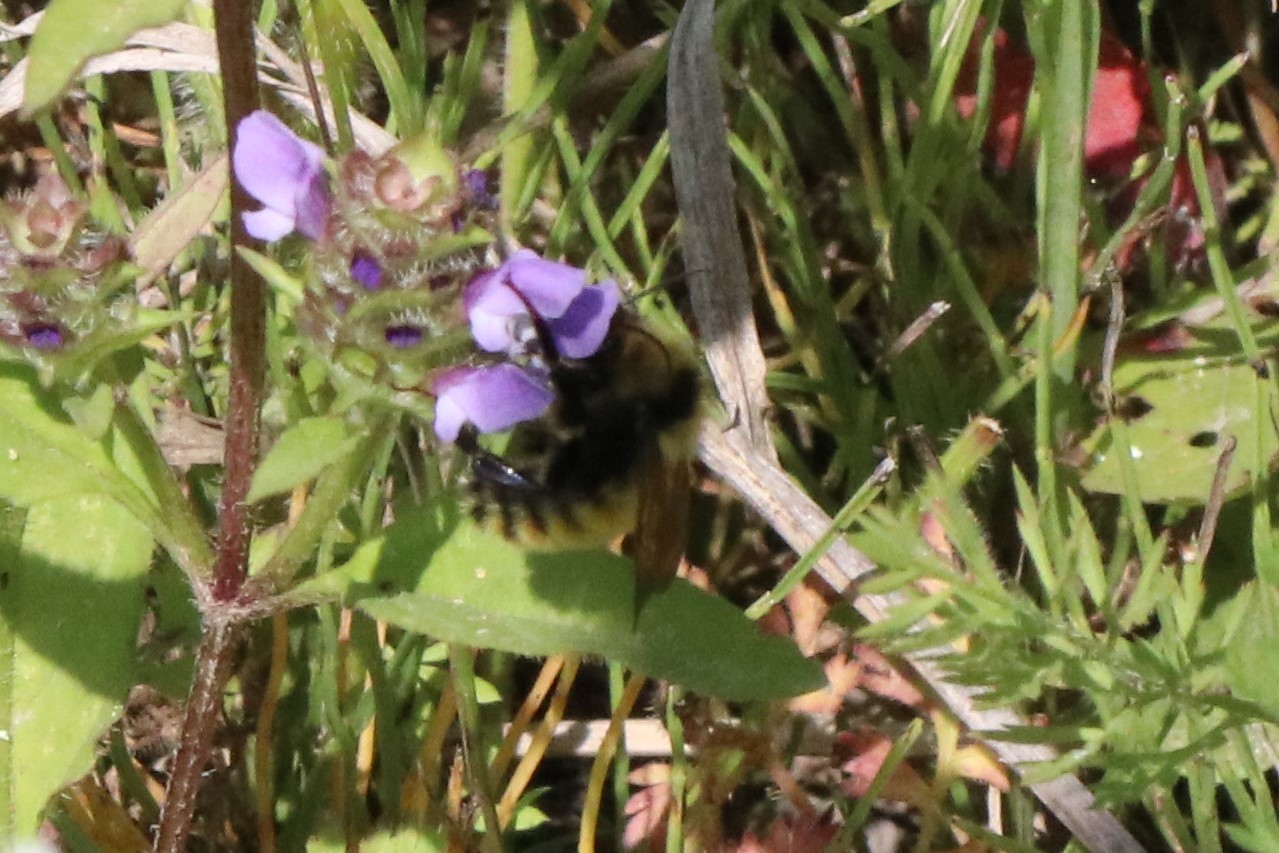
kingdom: Animalia
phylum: Arthropoda
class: Insecta
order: Hymenoptera
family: Apidae
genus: Bombus
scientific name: Bombus borealis
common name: Northern amber bumble bee
